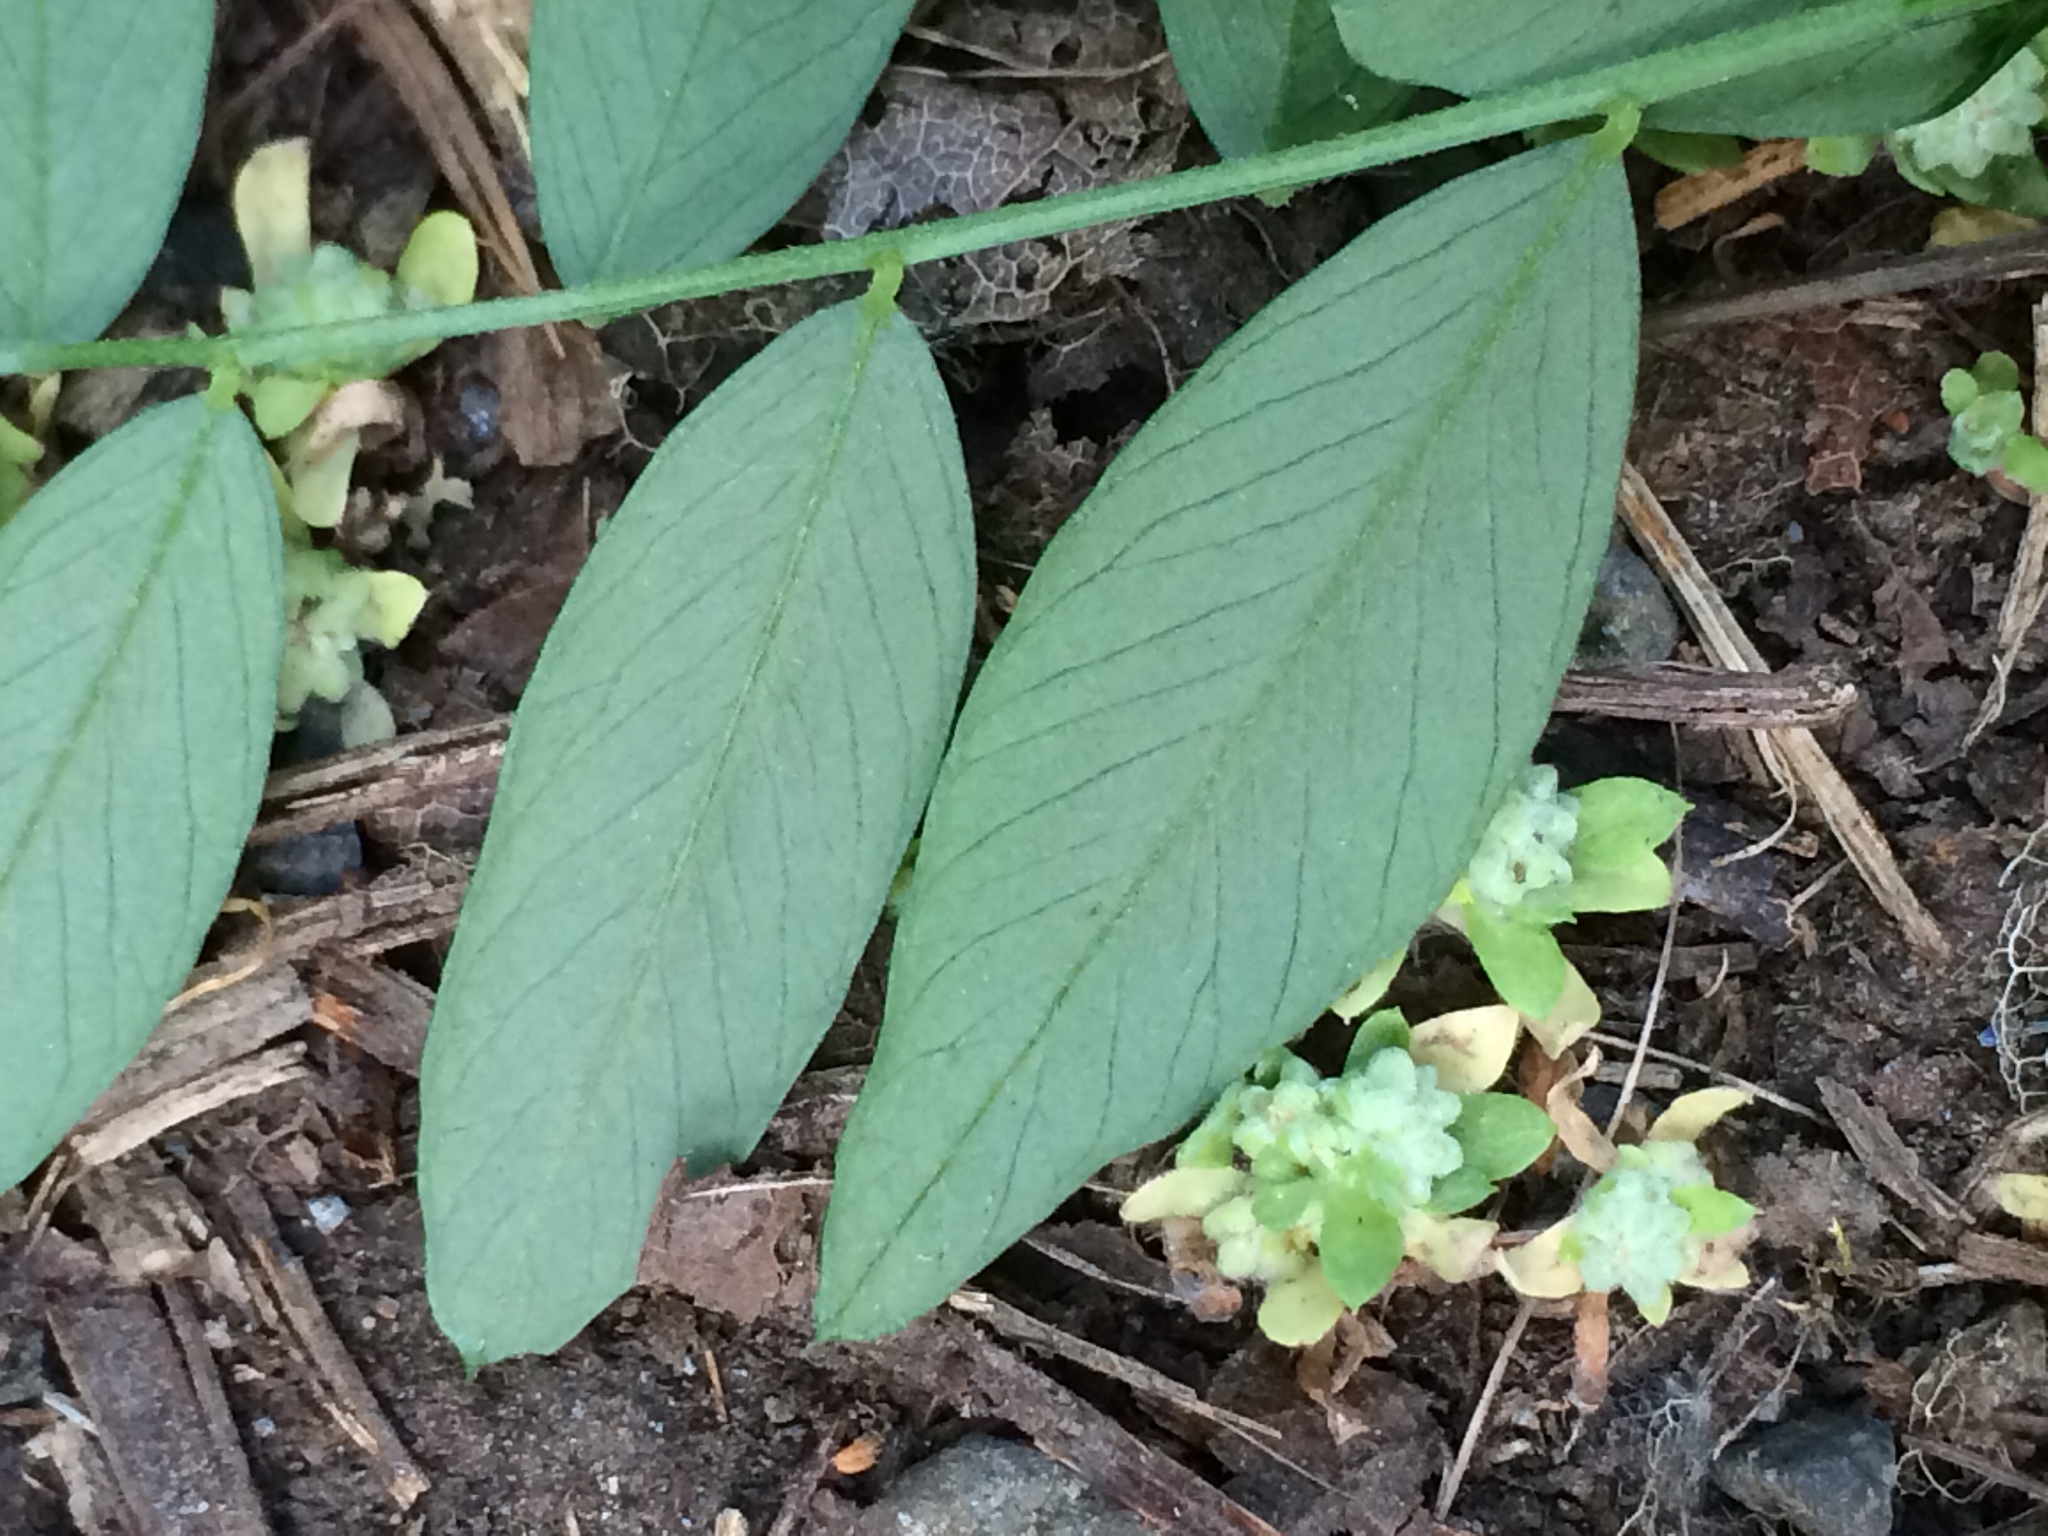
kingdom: Plantae
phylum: Tracheophyta
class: Magnoliopsida
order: Fabales
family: Fabaceae
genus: Vicia
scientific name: Vicia americana
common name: American vetch
